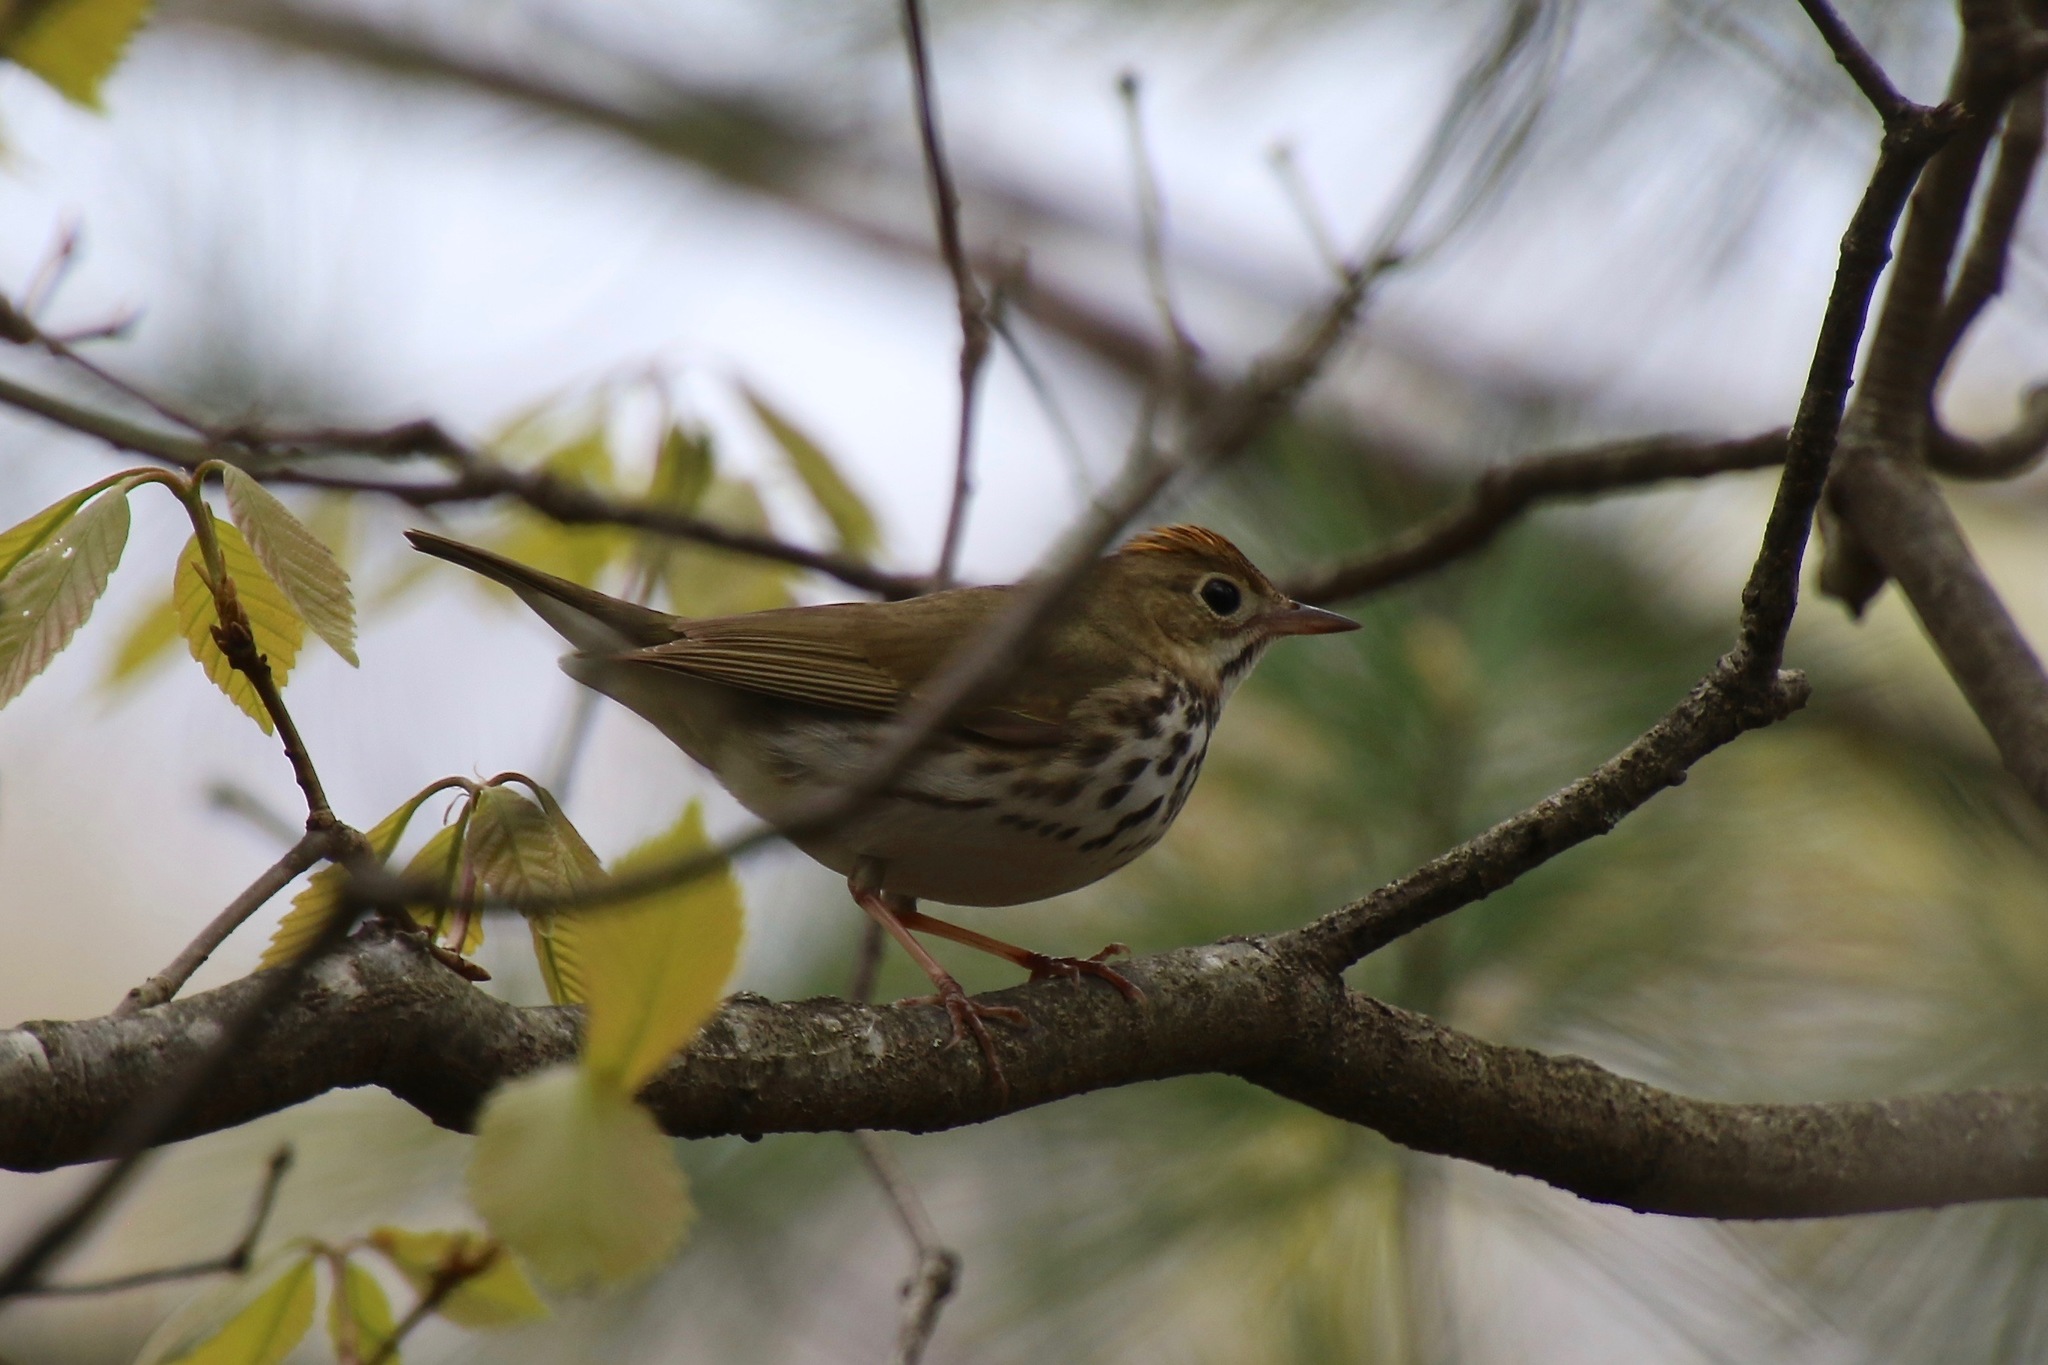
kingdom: Animalia
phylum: Chordata
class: Aves
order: Passeriformes
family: Parulidae
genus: Seiurus
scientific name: Seiurus aurocapilla
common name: Ovenbird
